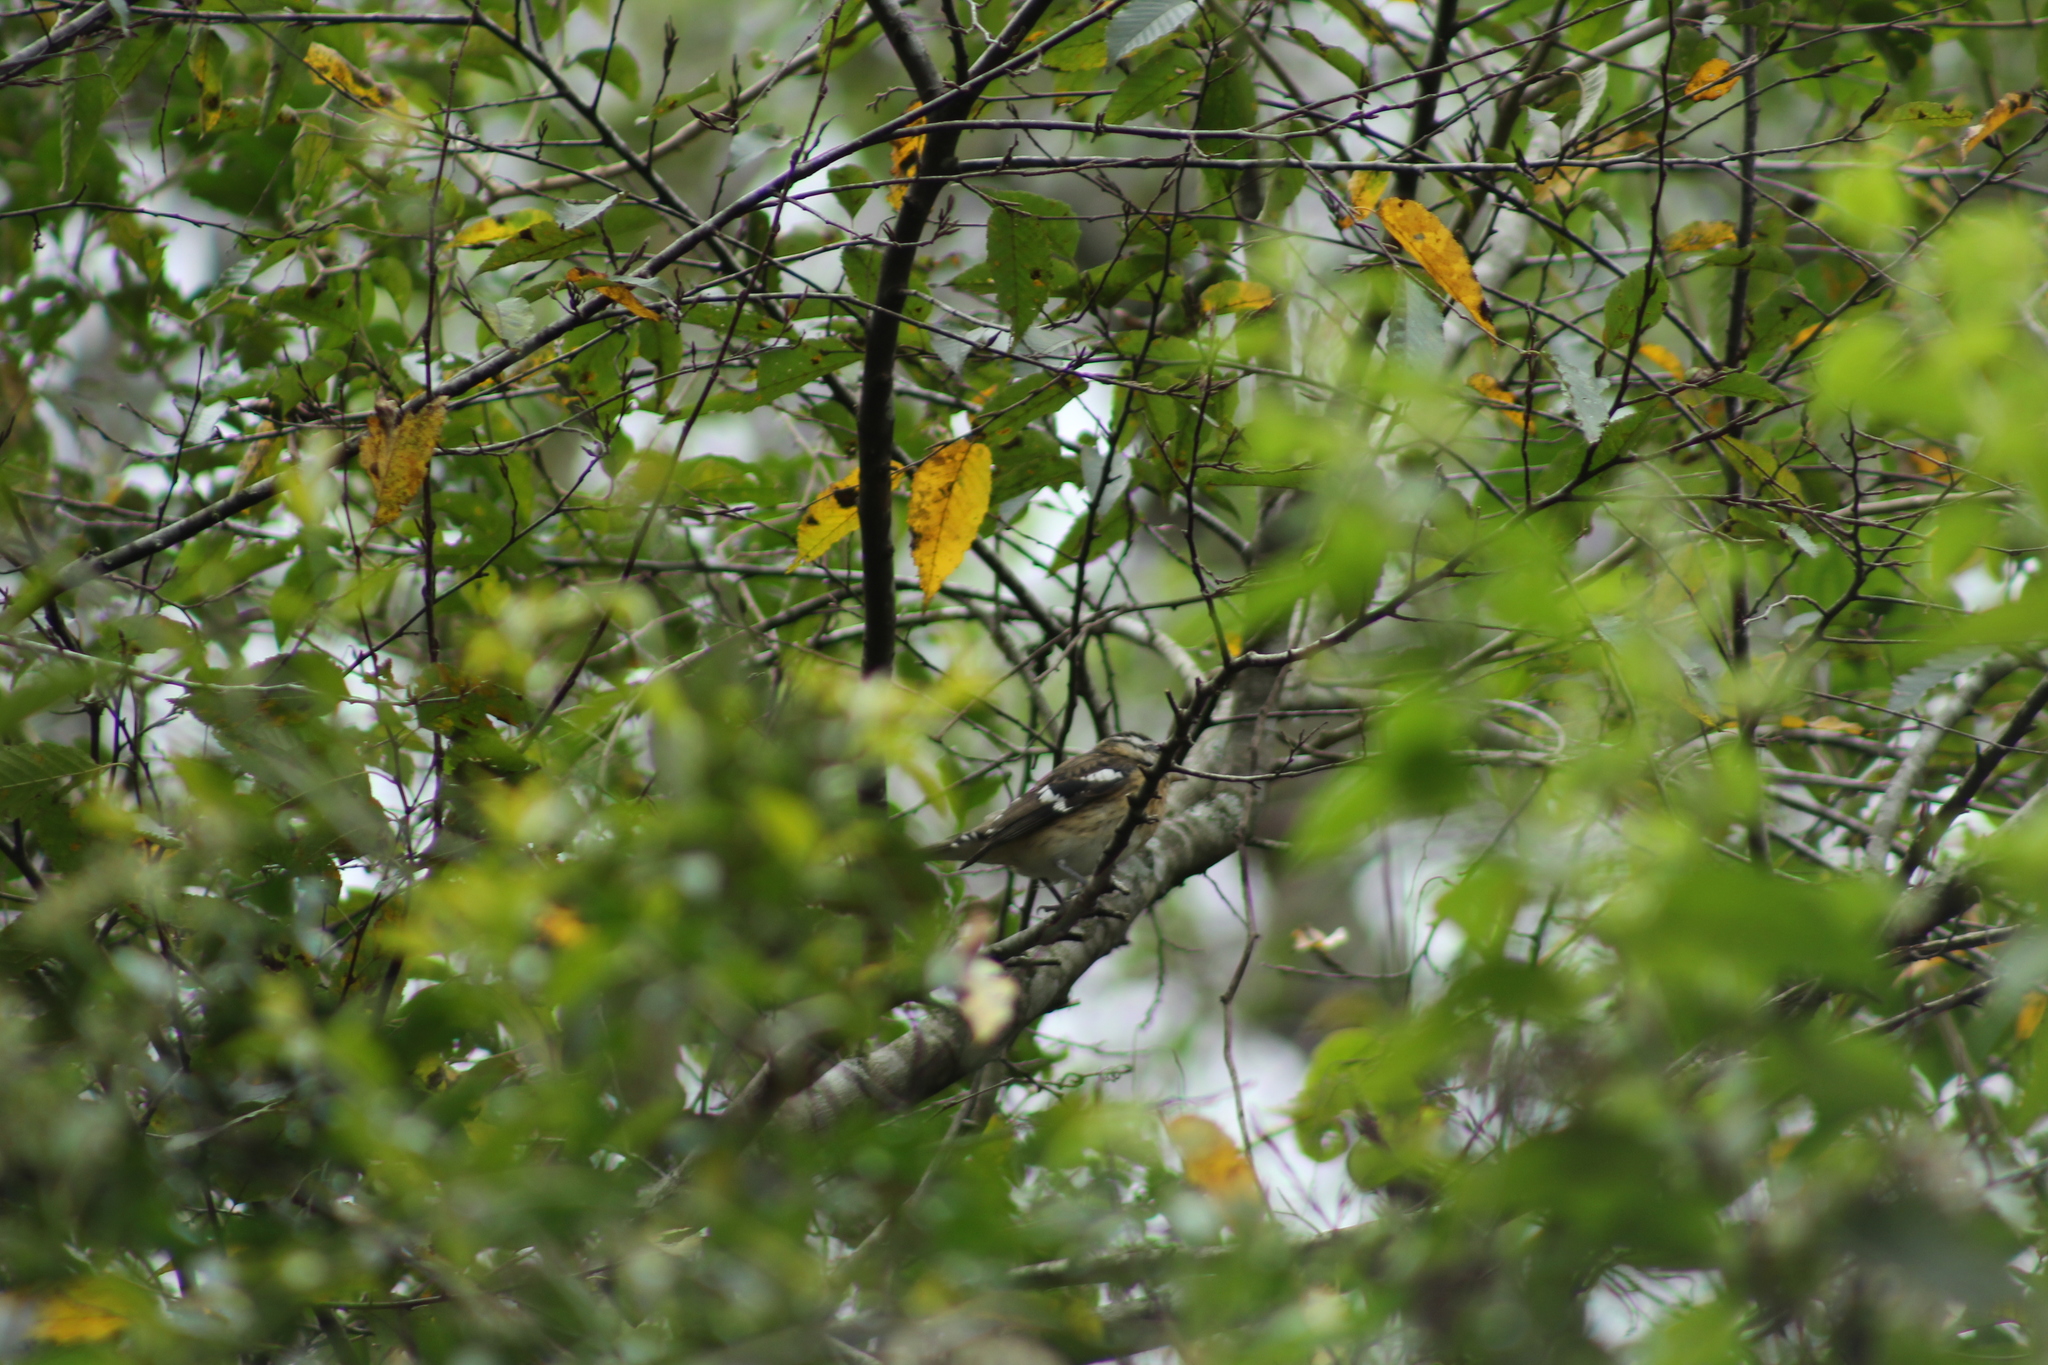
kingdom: Animalia
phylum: Chordata
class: Aves
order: Passeriformes
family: Cardinalidae
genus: Pheucticus
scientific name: Pheucticus ludovicianus
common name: Rose-breasted grosbeak
